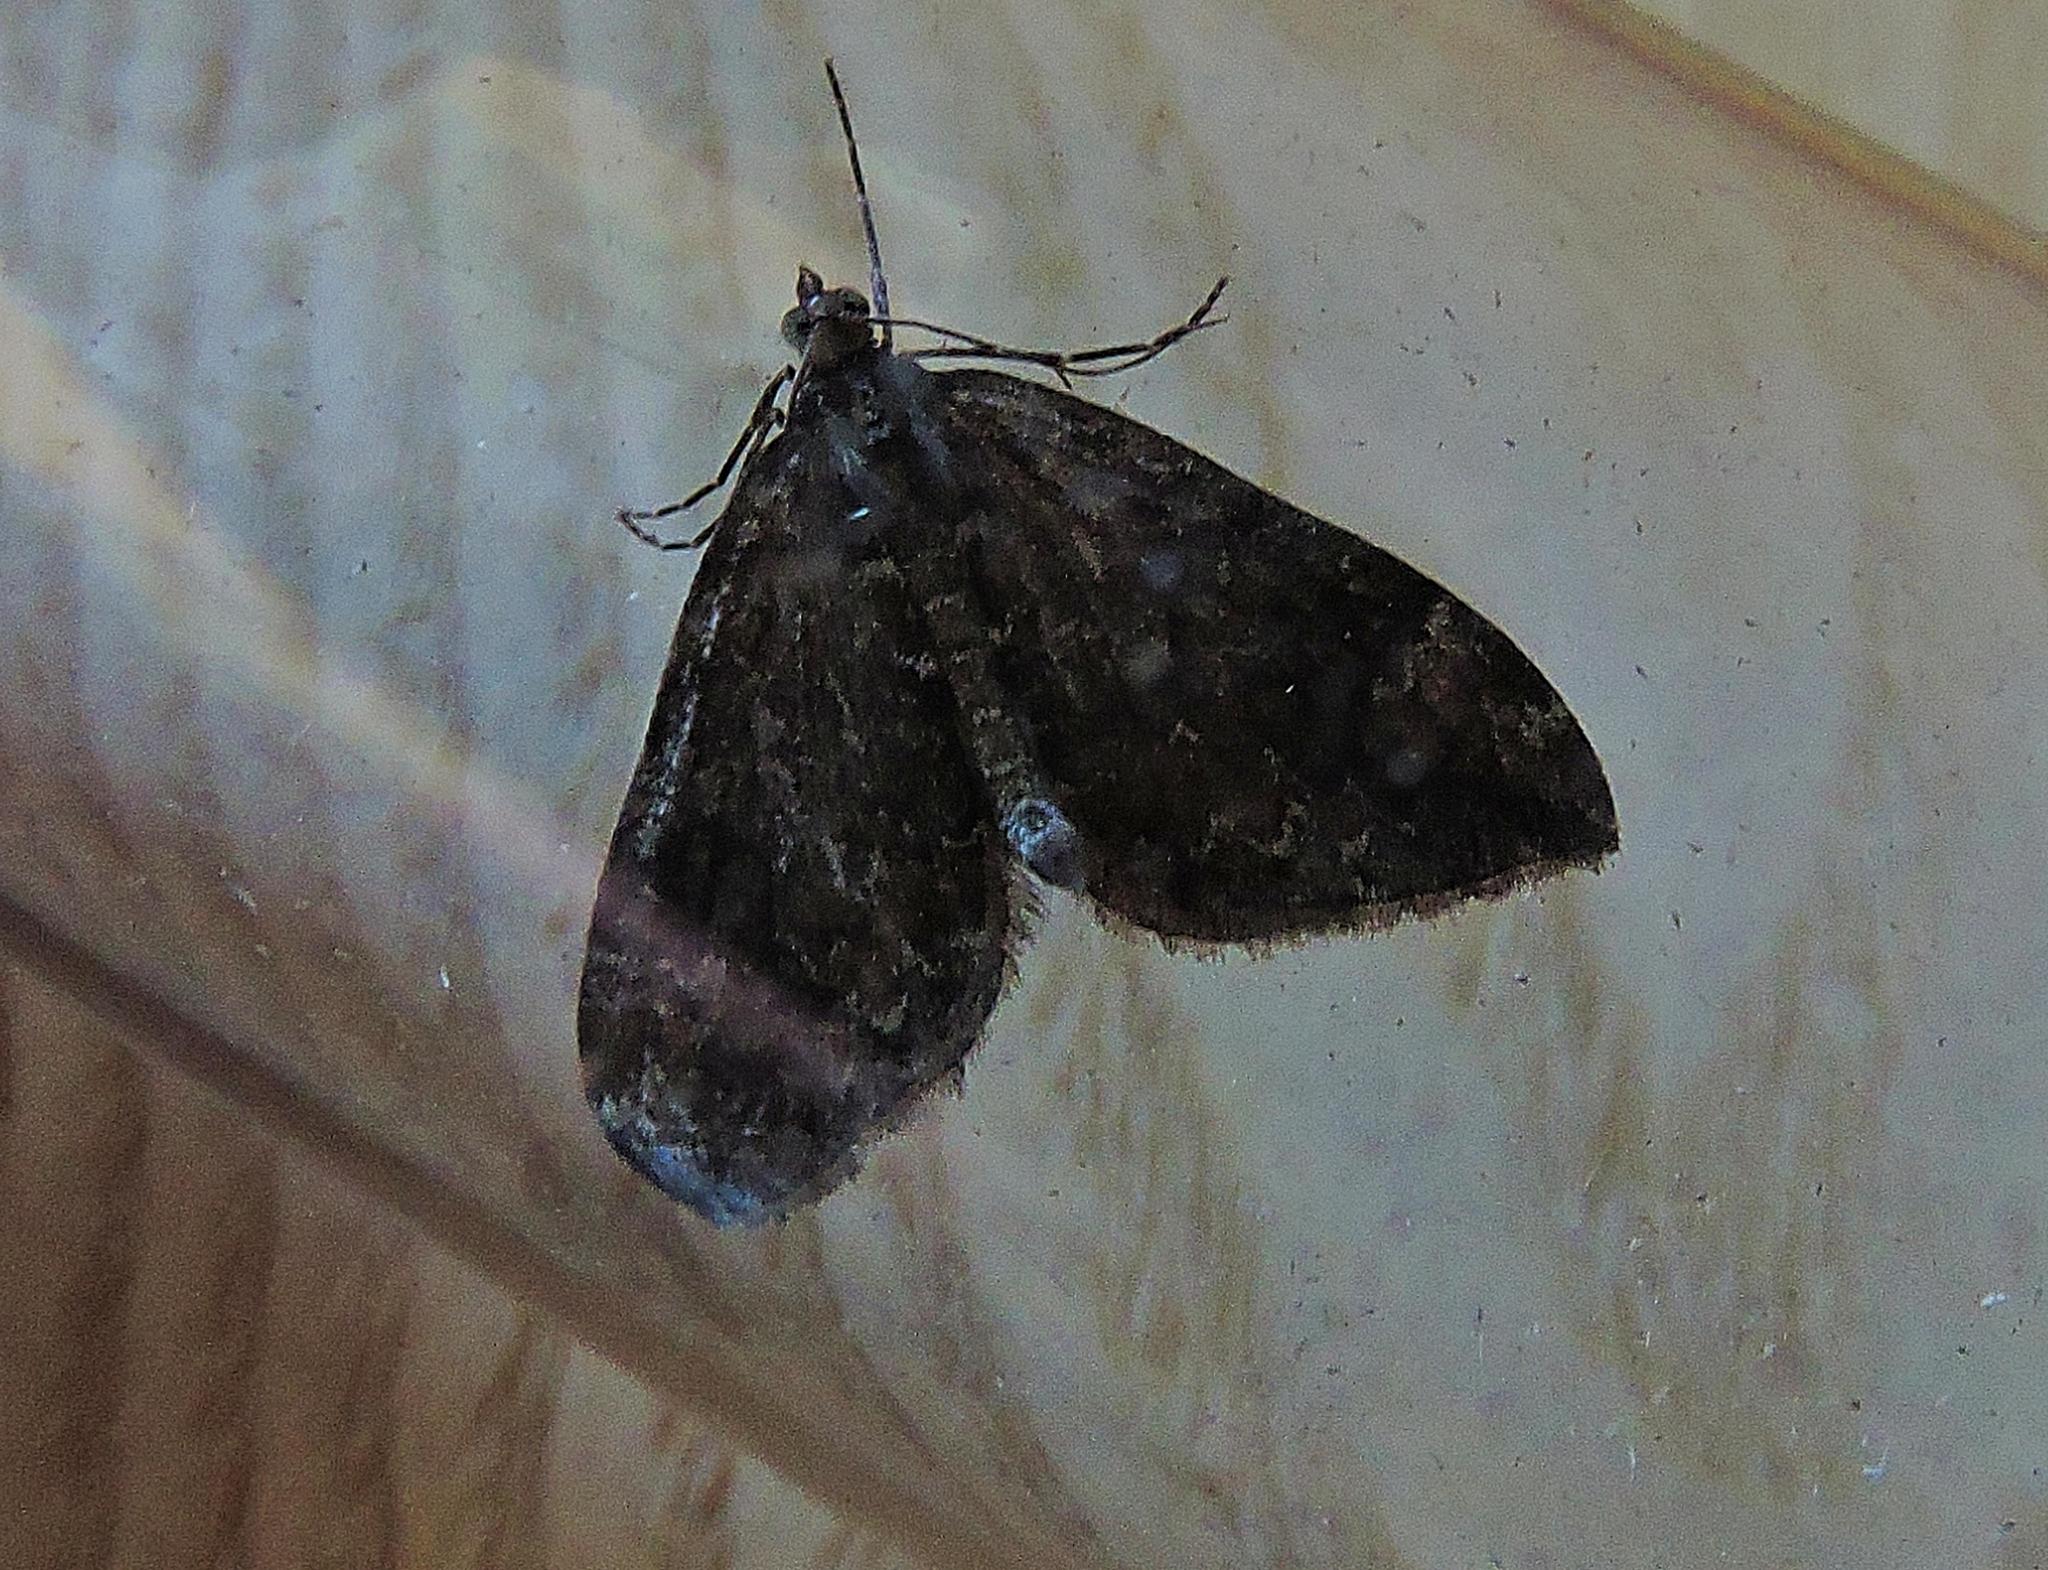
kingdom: Animalia
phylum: Arthropoda
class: Insecta
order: Lepidoptera
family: Geometridae
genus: Dysstroma
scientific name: Dysstroma truncata
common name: Common marbled carpet
